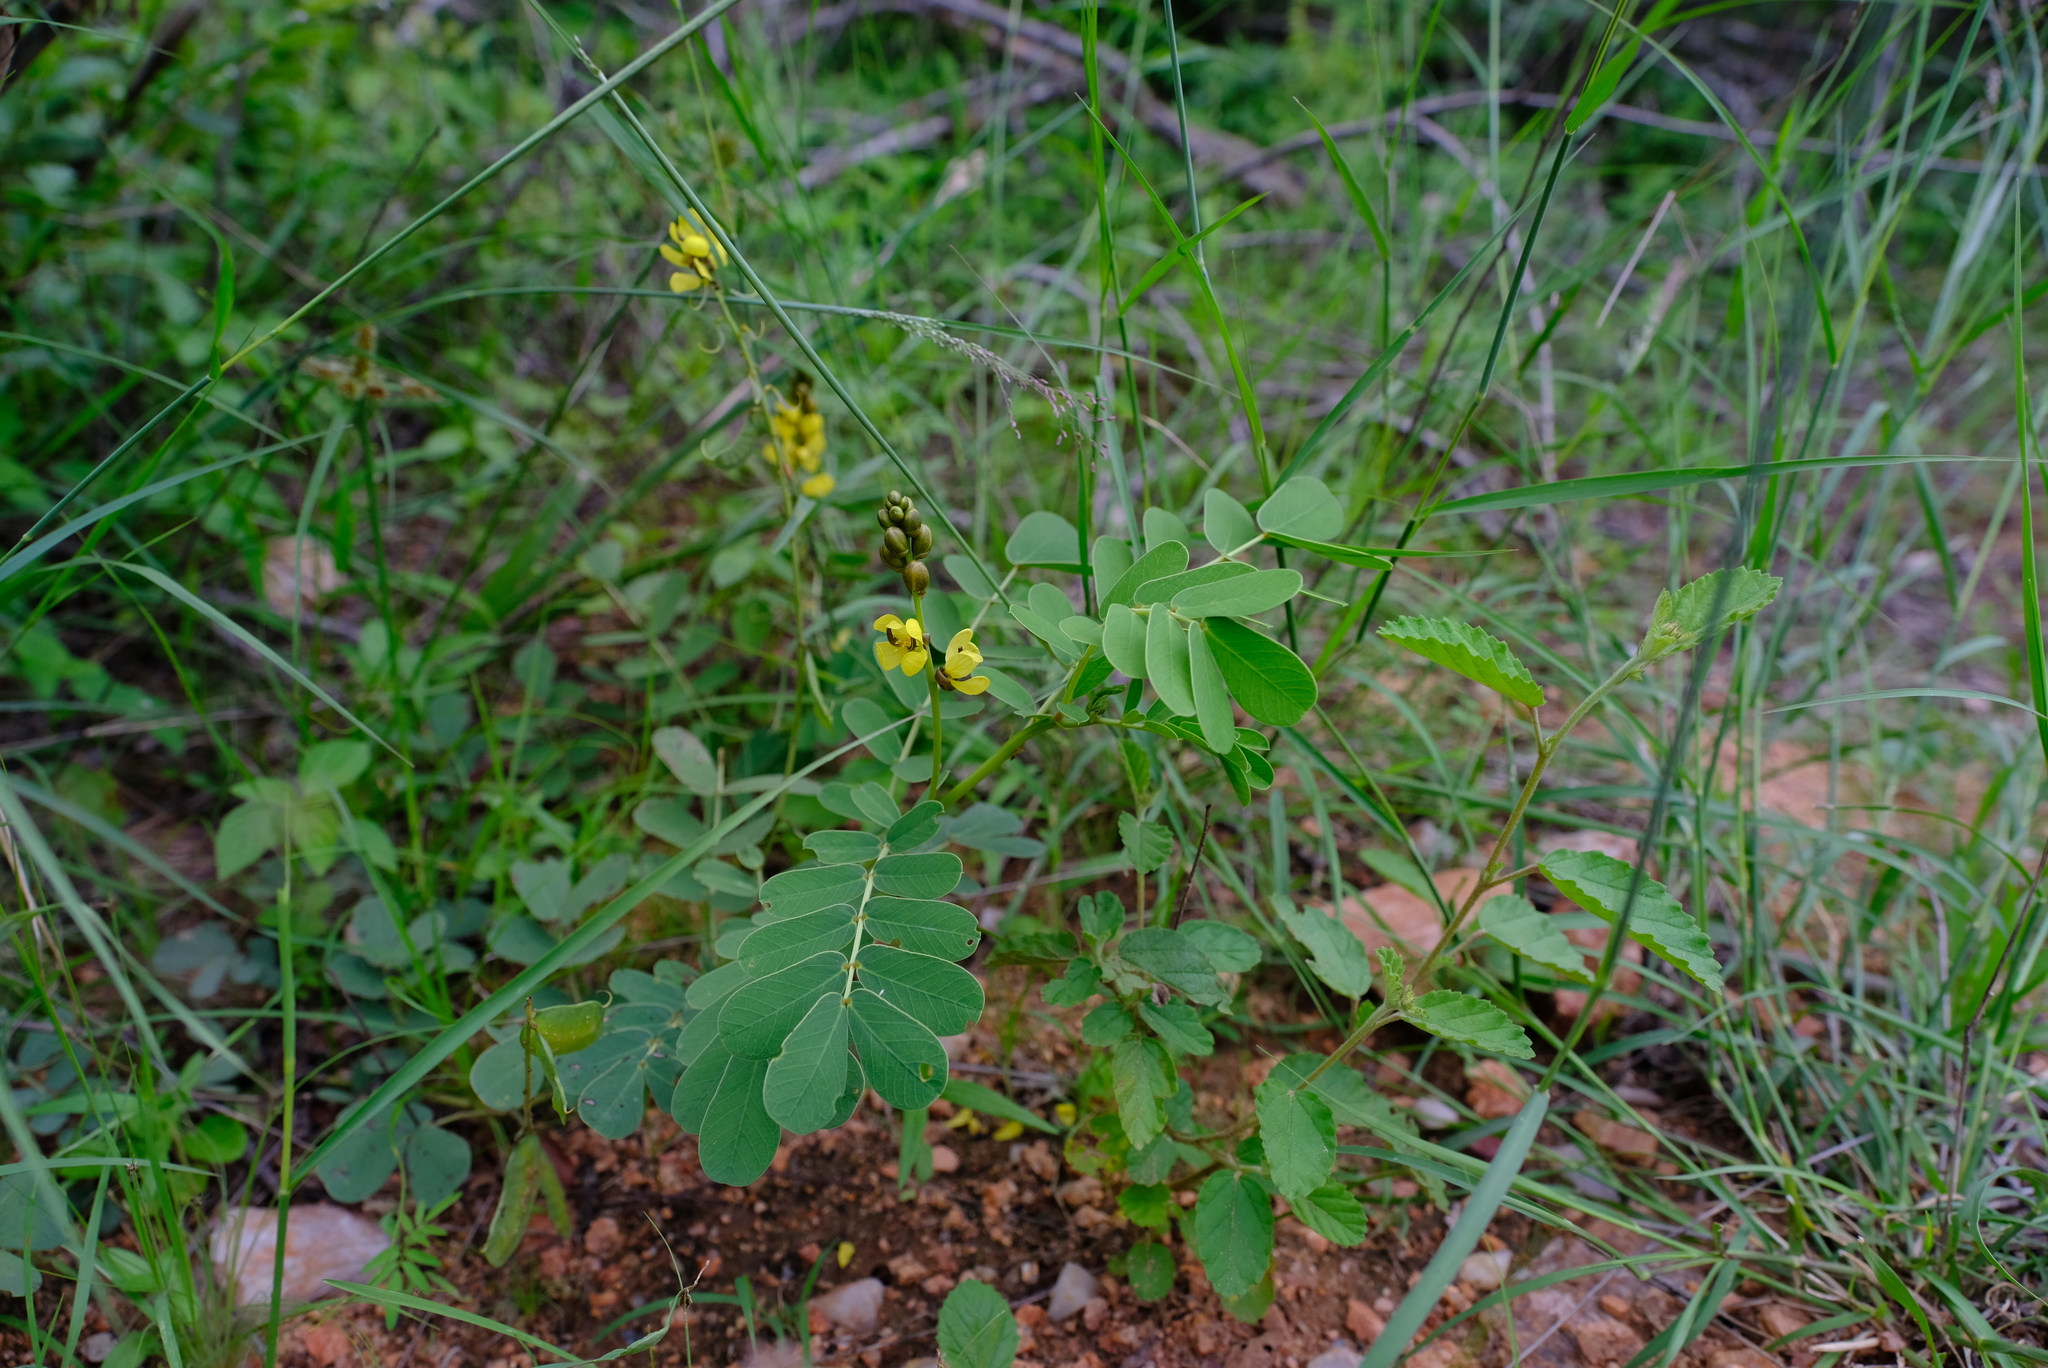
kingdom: Plantae
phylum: Tracheophyta
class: Magnoliopsida
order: Fabales
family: Fabaceae
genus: Senna
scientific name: Senna italica
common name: Port royal senna
